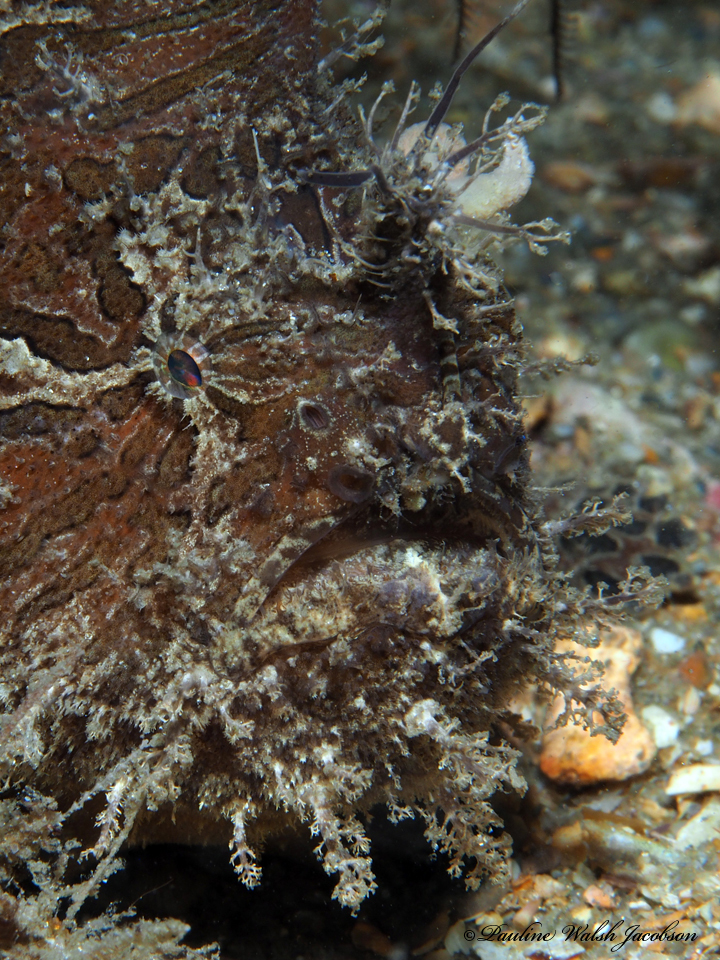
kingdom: Animalia
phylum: Chordata
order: Lophiiformes
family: Antennariidae
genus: Antennarius
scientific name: Antennarius striatus
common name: Striated frogfish
